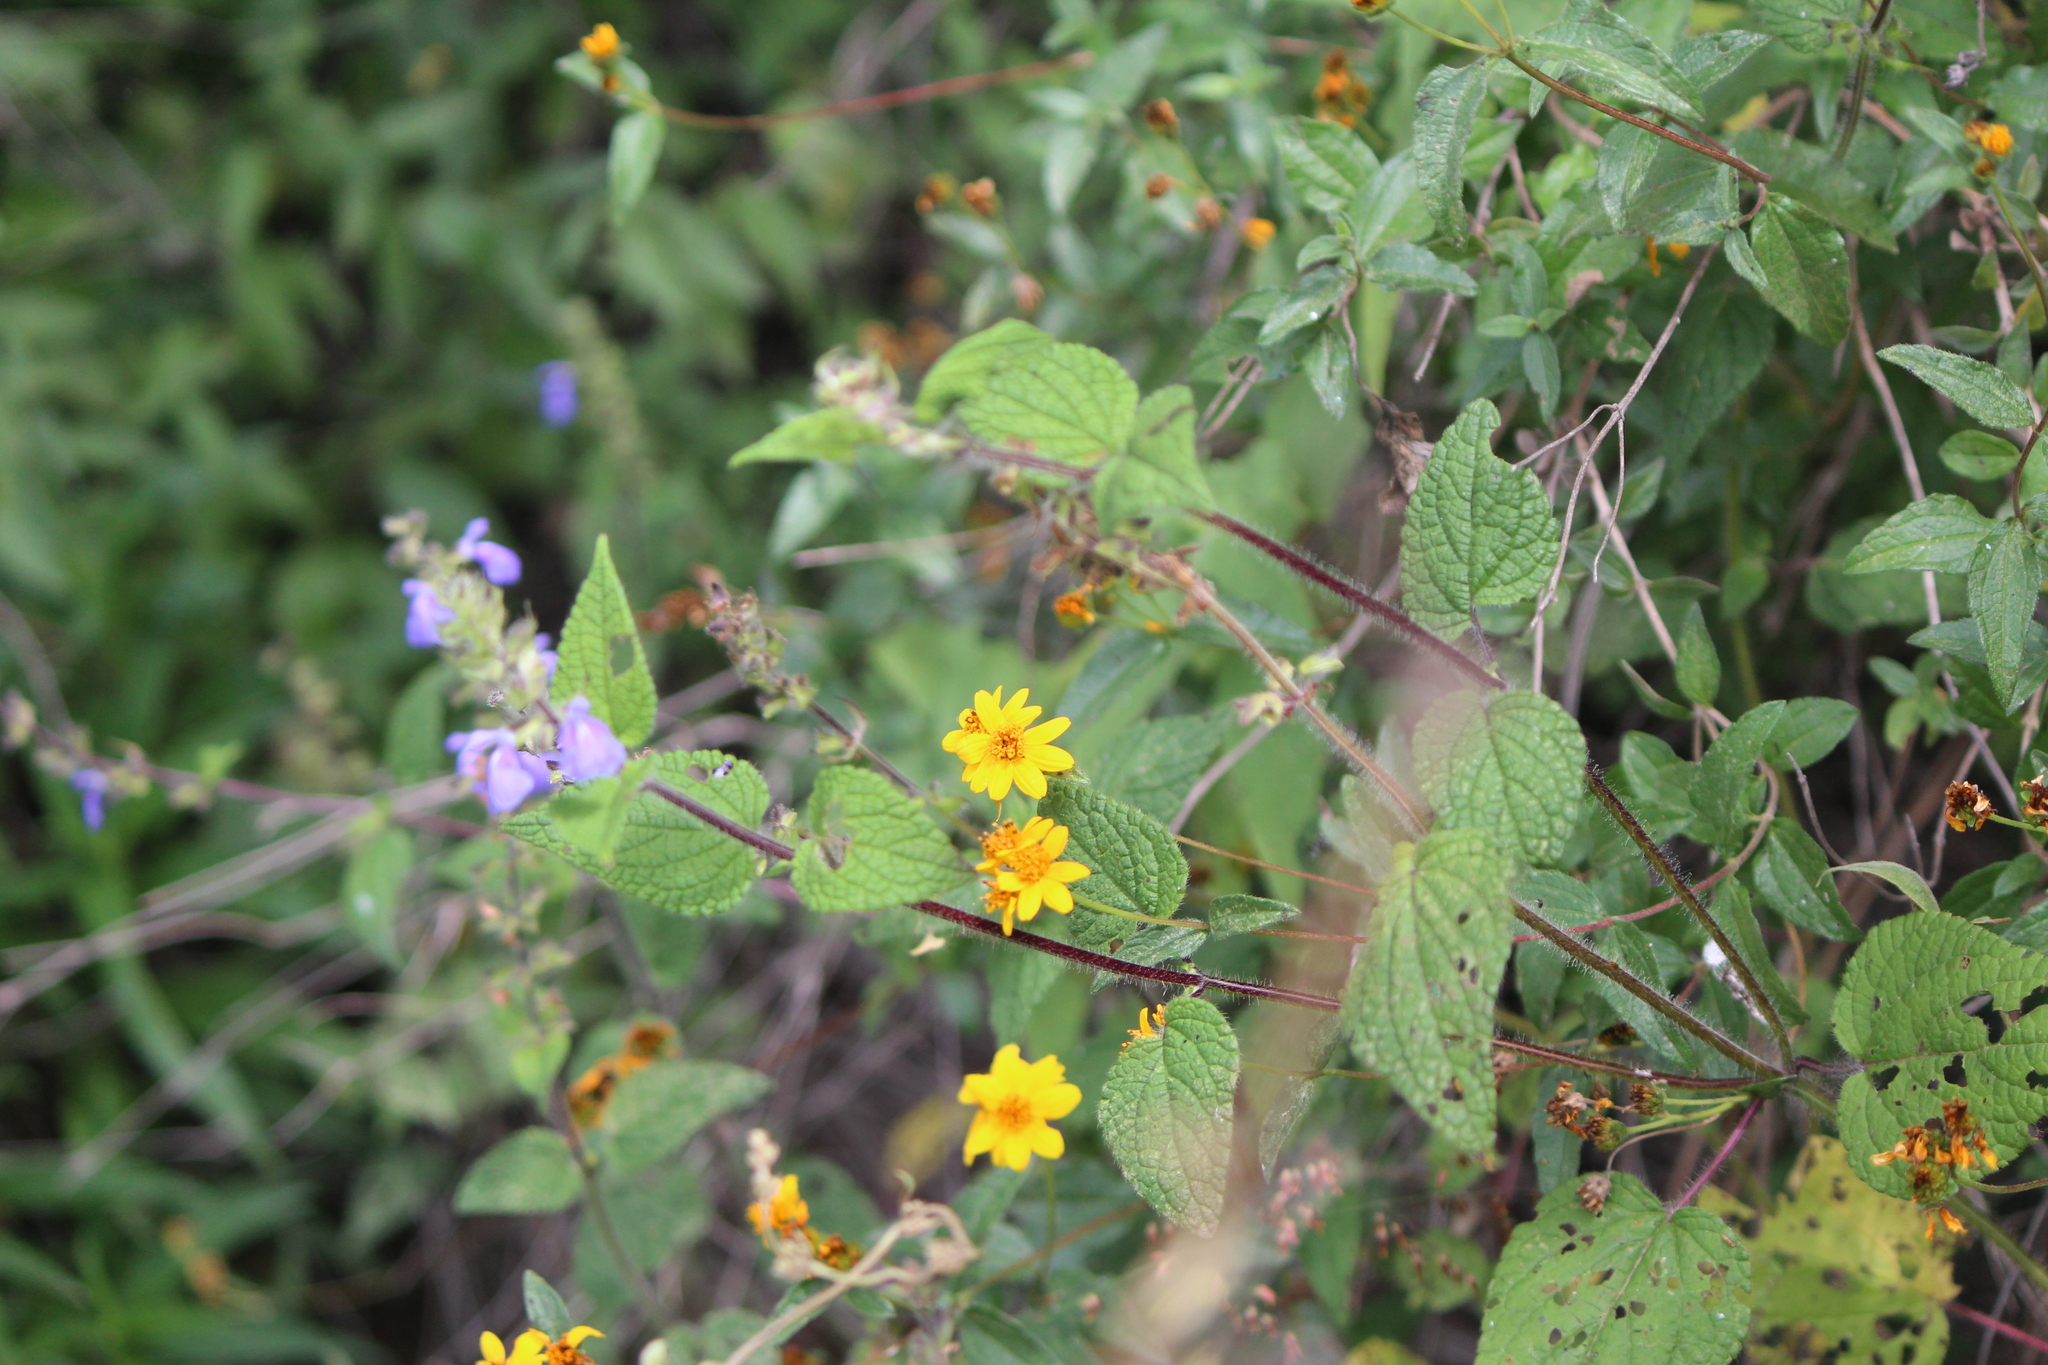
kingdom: Plantae
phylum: Tracheophyta
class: Magnoliopsida
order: Lamiales
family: Lamiaceae
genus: Salvia
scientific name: Salvia circinnata
